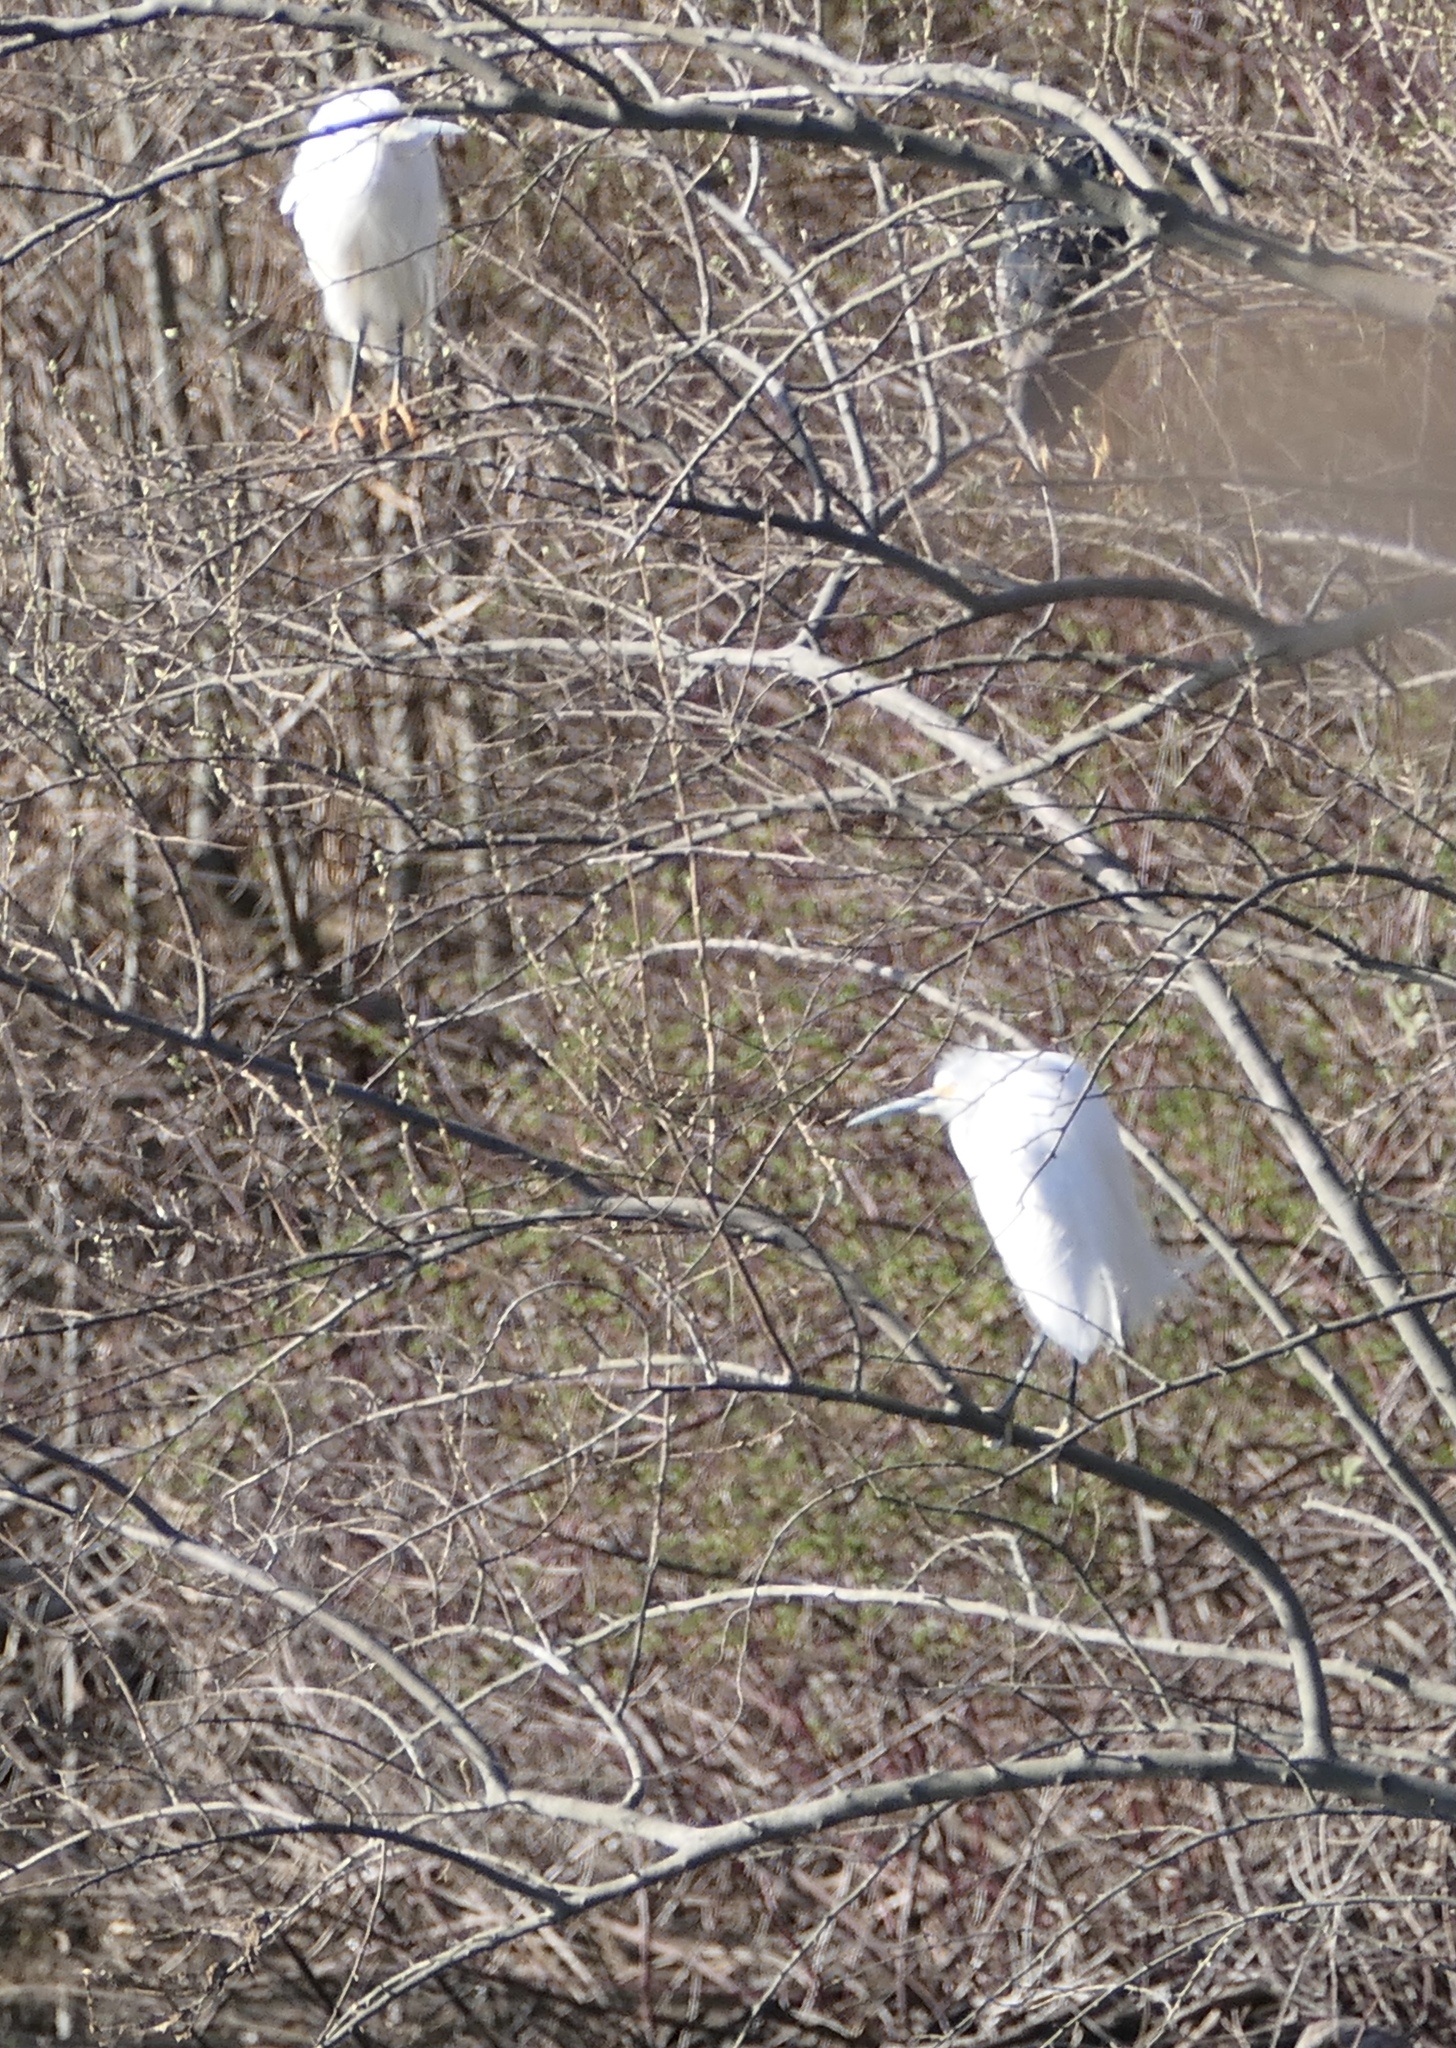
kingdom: Animalia
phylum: Chordata
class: Aves
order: Pelecaniformes
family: Ardeidae
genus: Egretta
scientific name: Egretta thula
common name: Snowy egret
